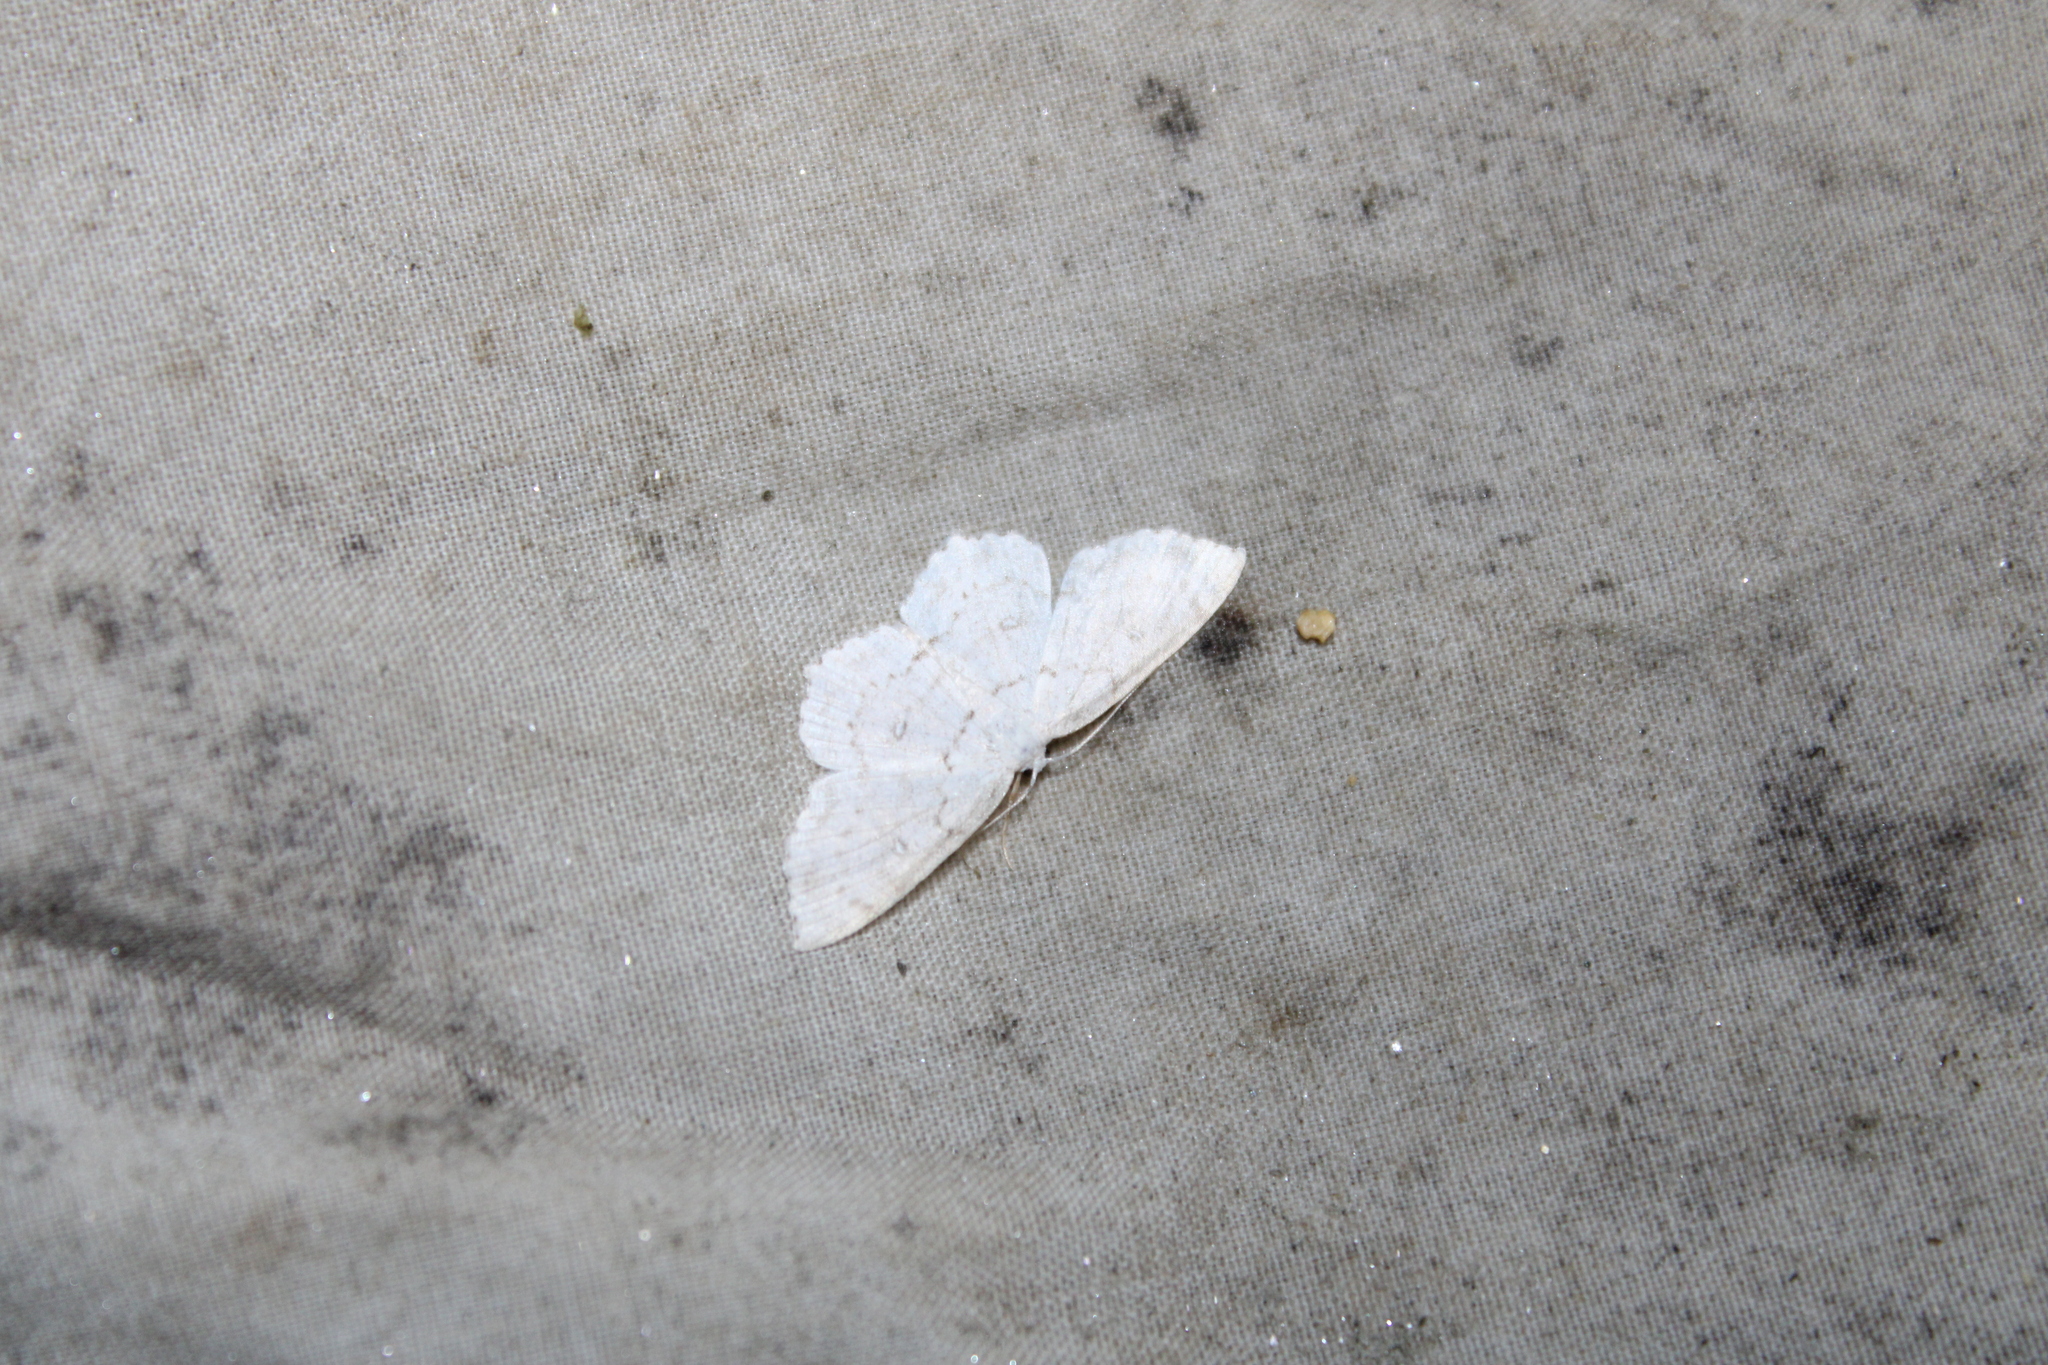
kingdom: Animalia
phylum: Arthropoda
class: Insecta
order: Lepidoptera
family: Geometridae
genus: Cyclophora
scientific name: Cyclophora pendulinaria
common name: Sweet fern geometer
